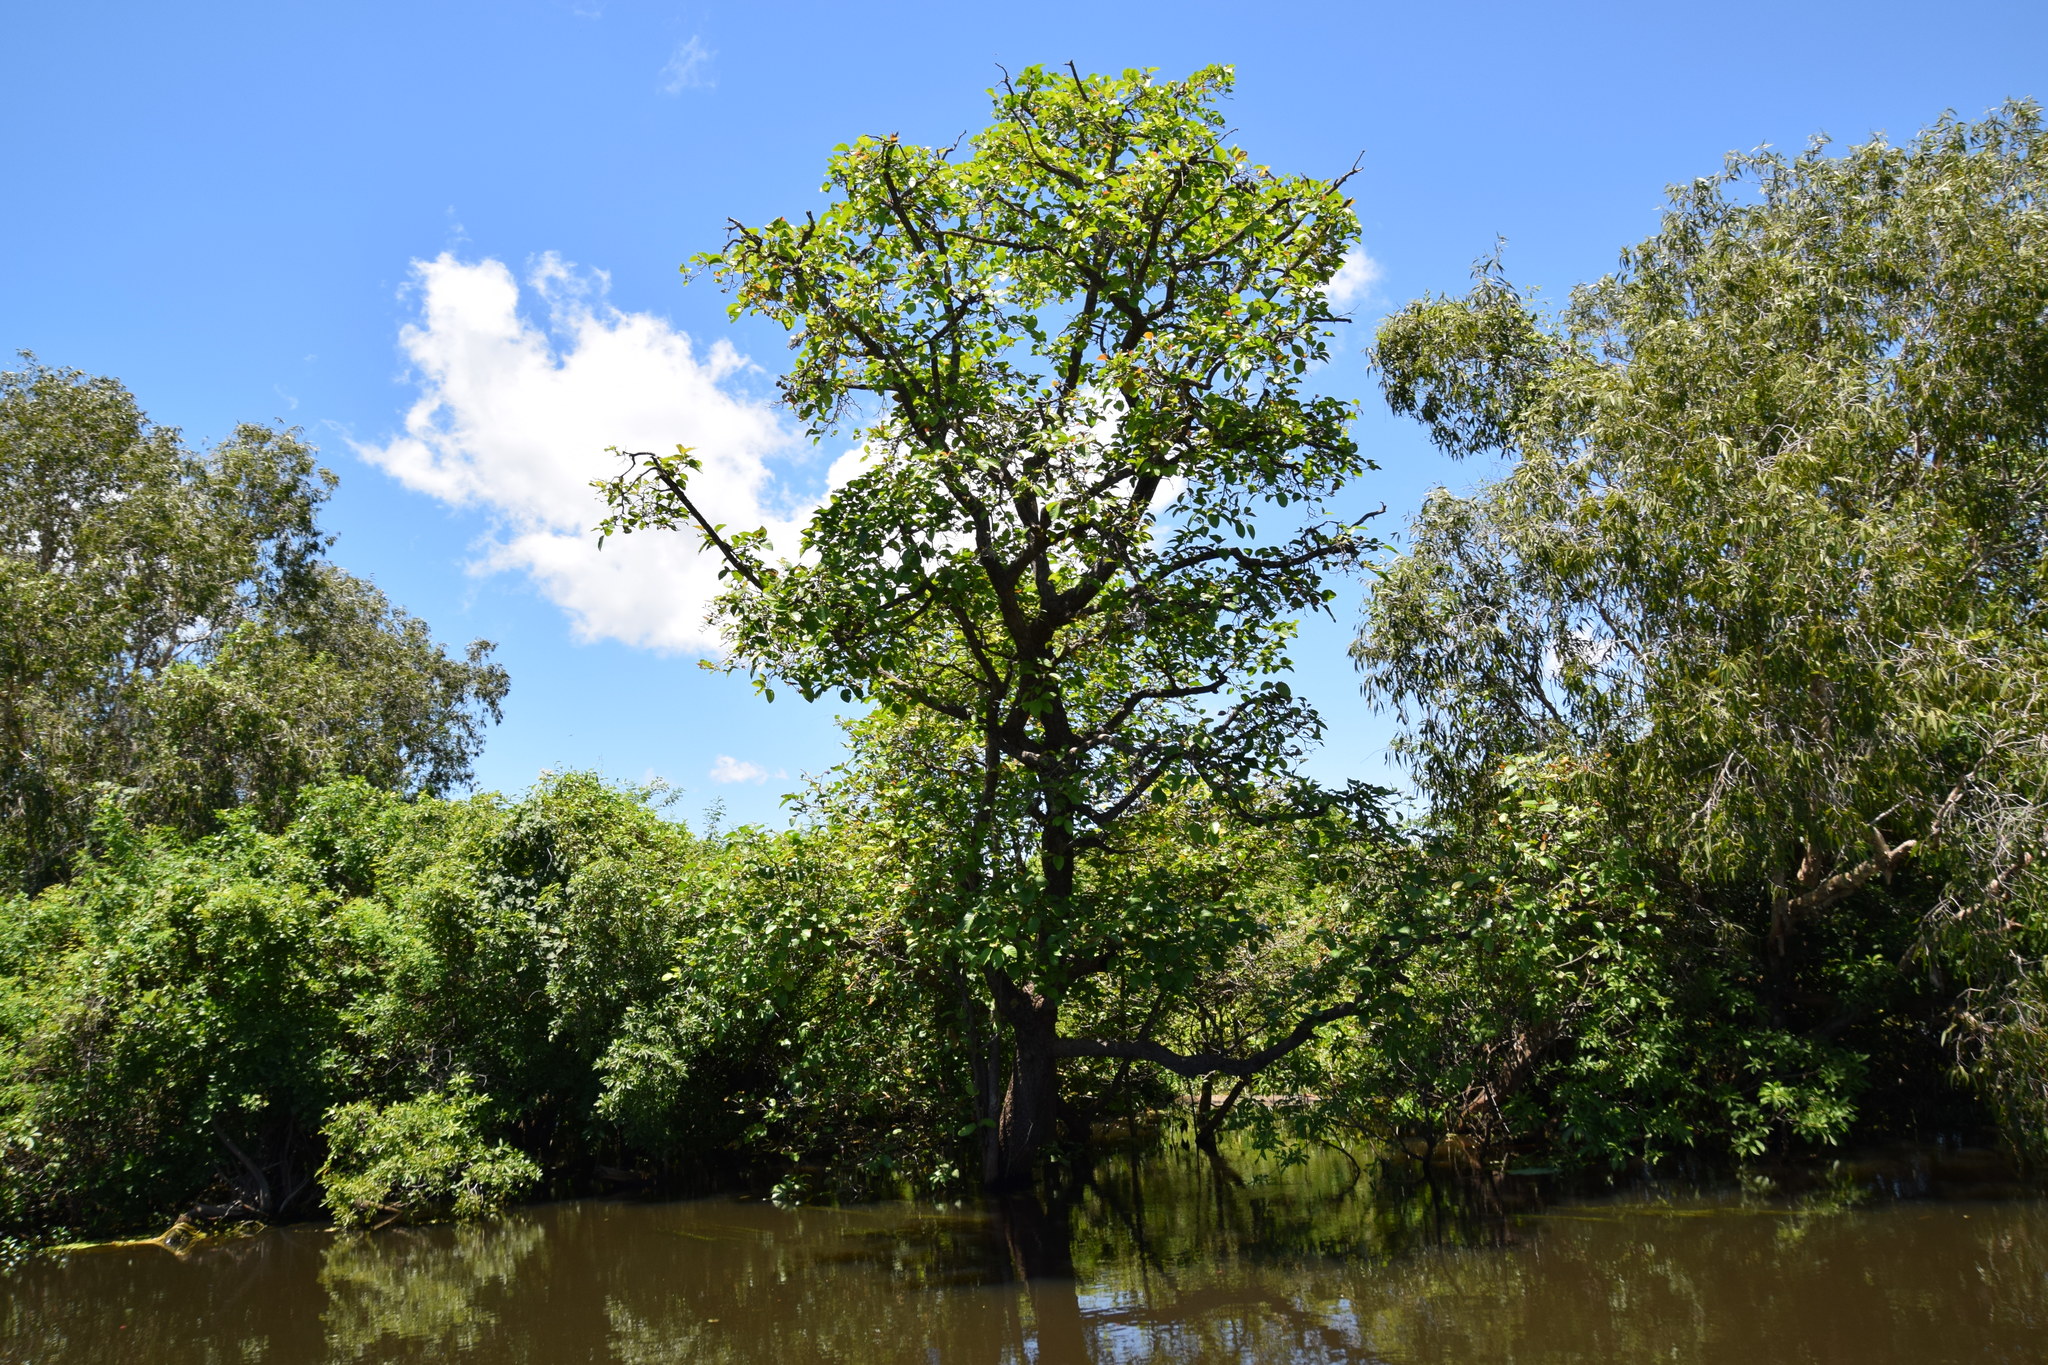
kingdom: Plantae
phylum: Tracheophyta
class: Magnoliopsida
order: Boraginales
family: Cordiaceae
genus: Cordia
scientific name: Cordia subcordata
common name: Mareer
